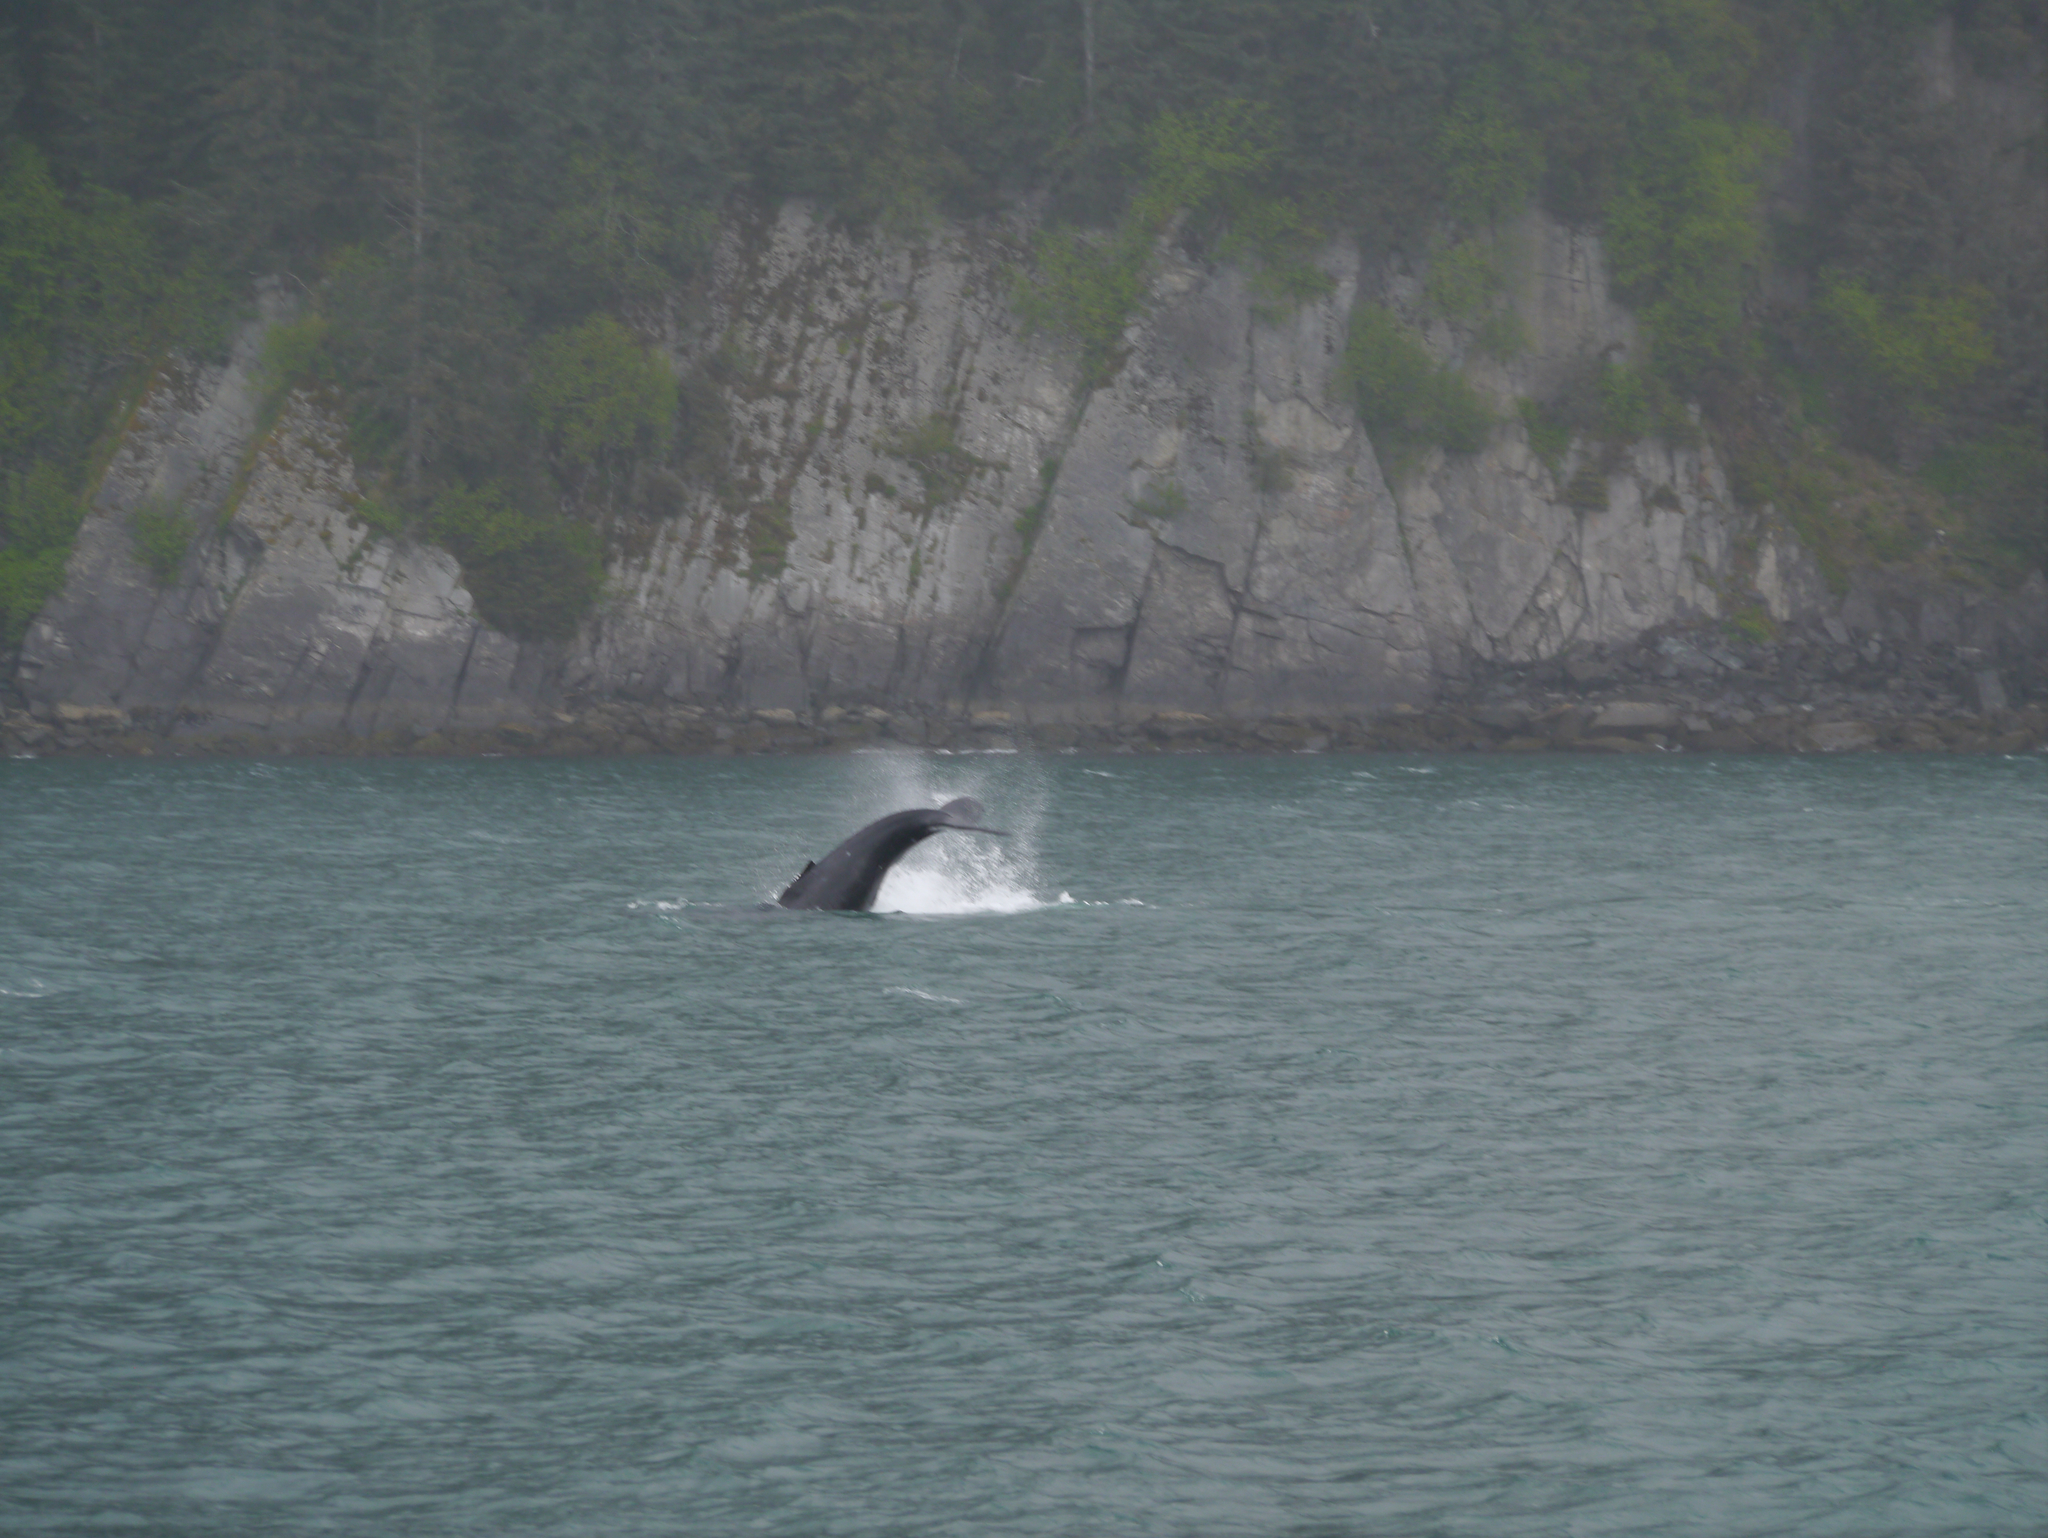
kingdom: Animalia
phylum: Chordata
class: Mammalia
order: Cetacea
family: Balaenopteridae
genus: Megaptera
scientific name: Megaptera novaeangliae
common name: Humpback whale
